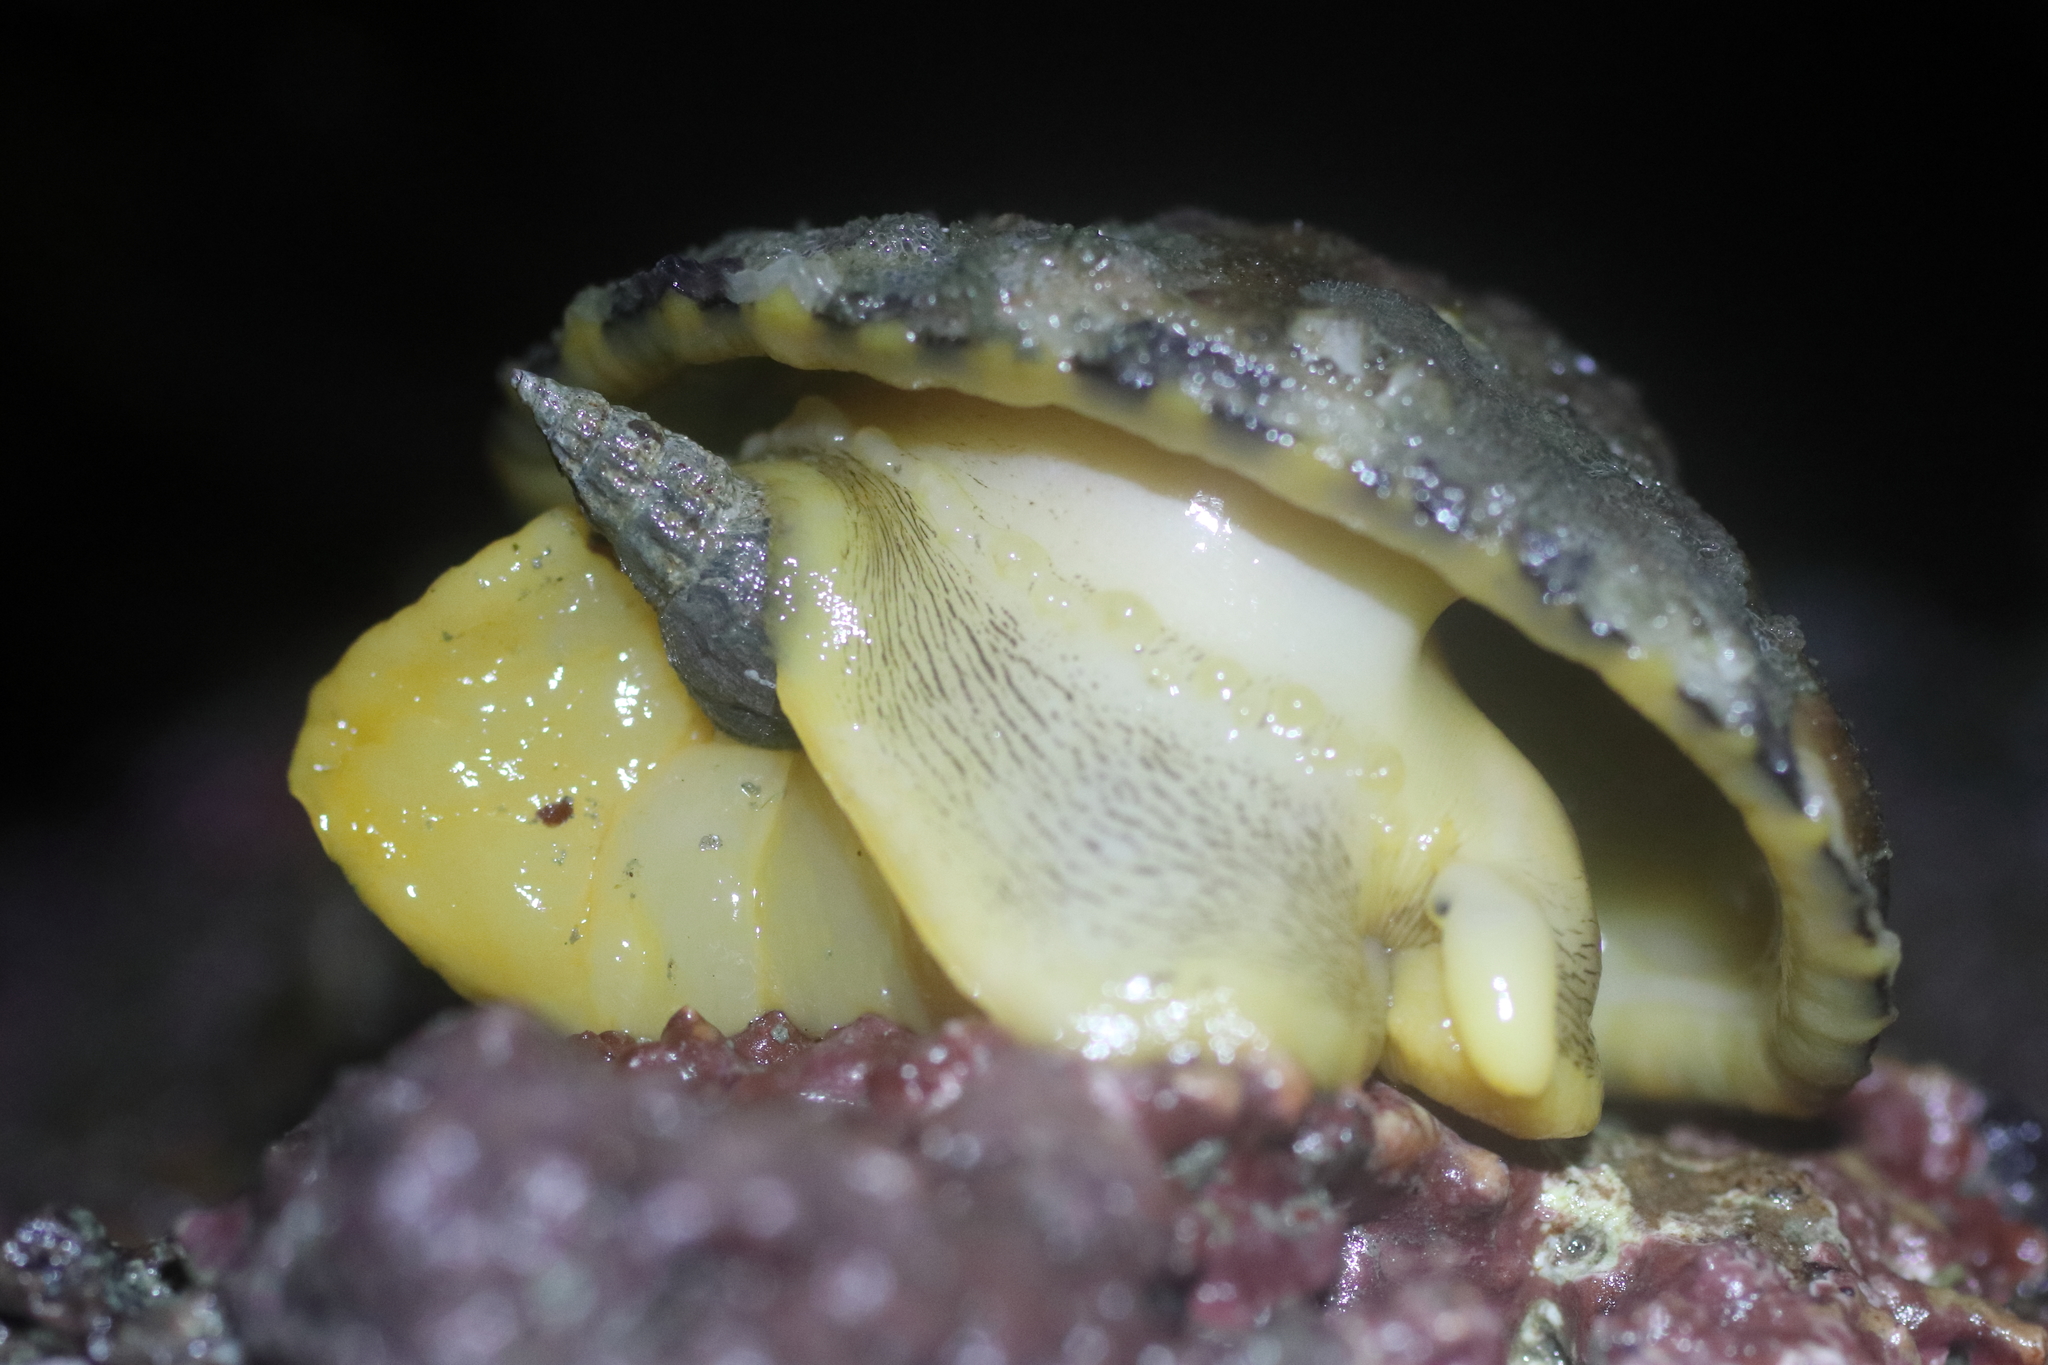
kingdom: Animalia
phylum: Mollusca
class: Gastropoda
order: Lepetellida
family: Fissurellidae
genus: Diodora
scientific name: Diodora aspera
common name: Rough keyhole limpet
